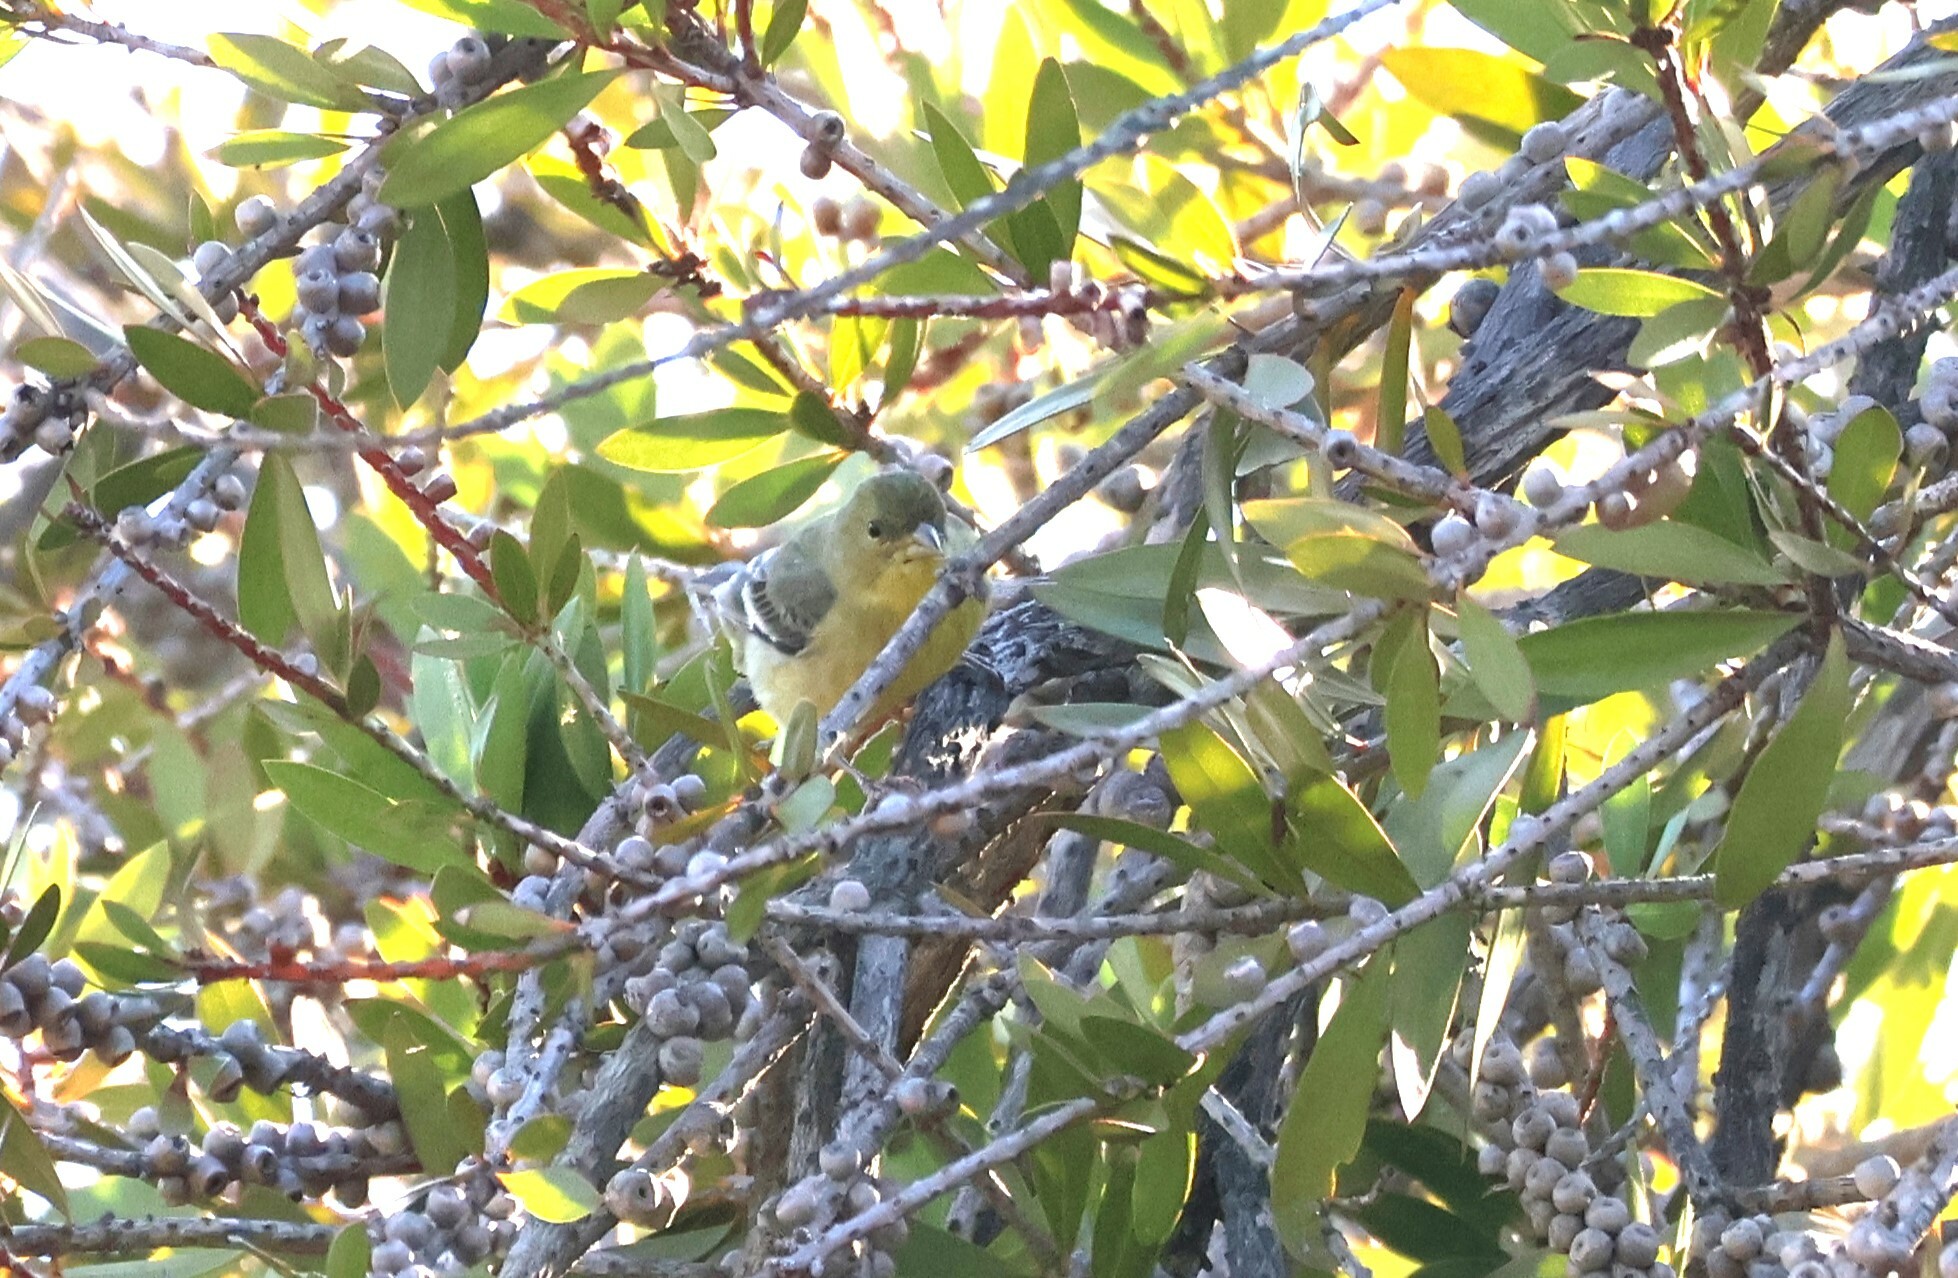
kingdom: Animalia
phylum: Chordata
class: Aves
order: Passeriformes
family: Fringillidae
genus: Spinus
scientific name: Spinus psaltria
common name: Lesser goldfinch
